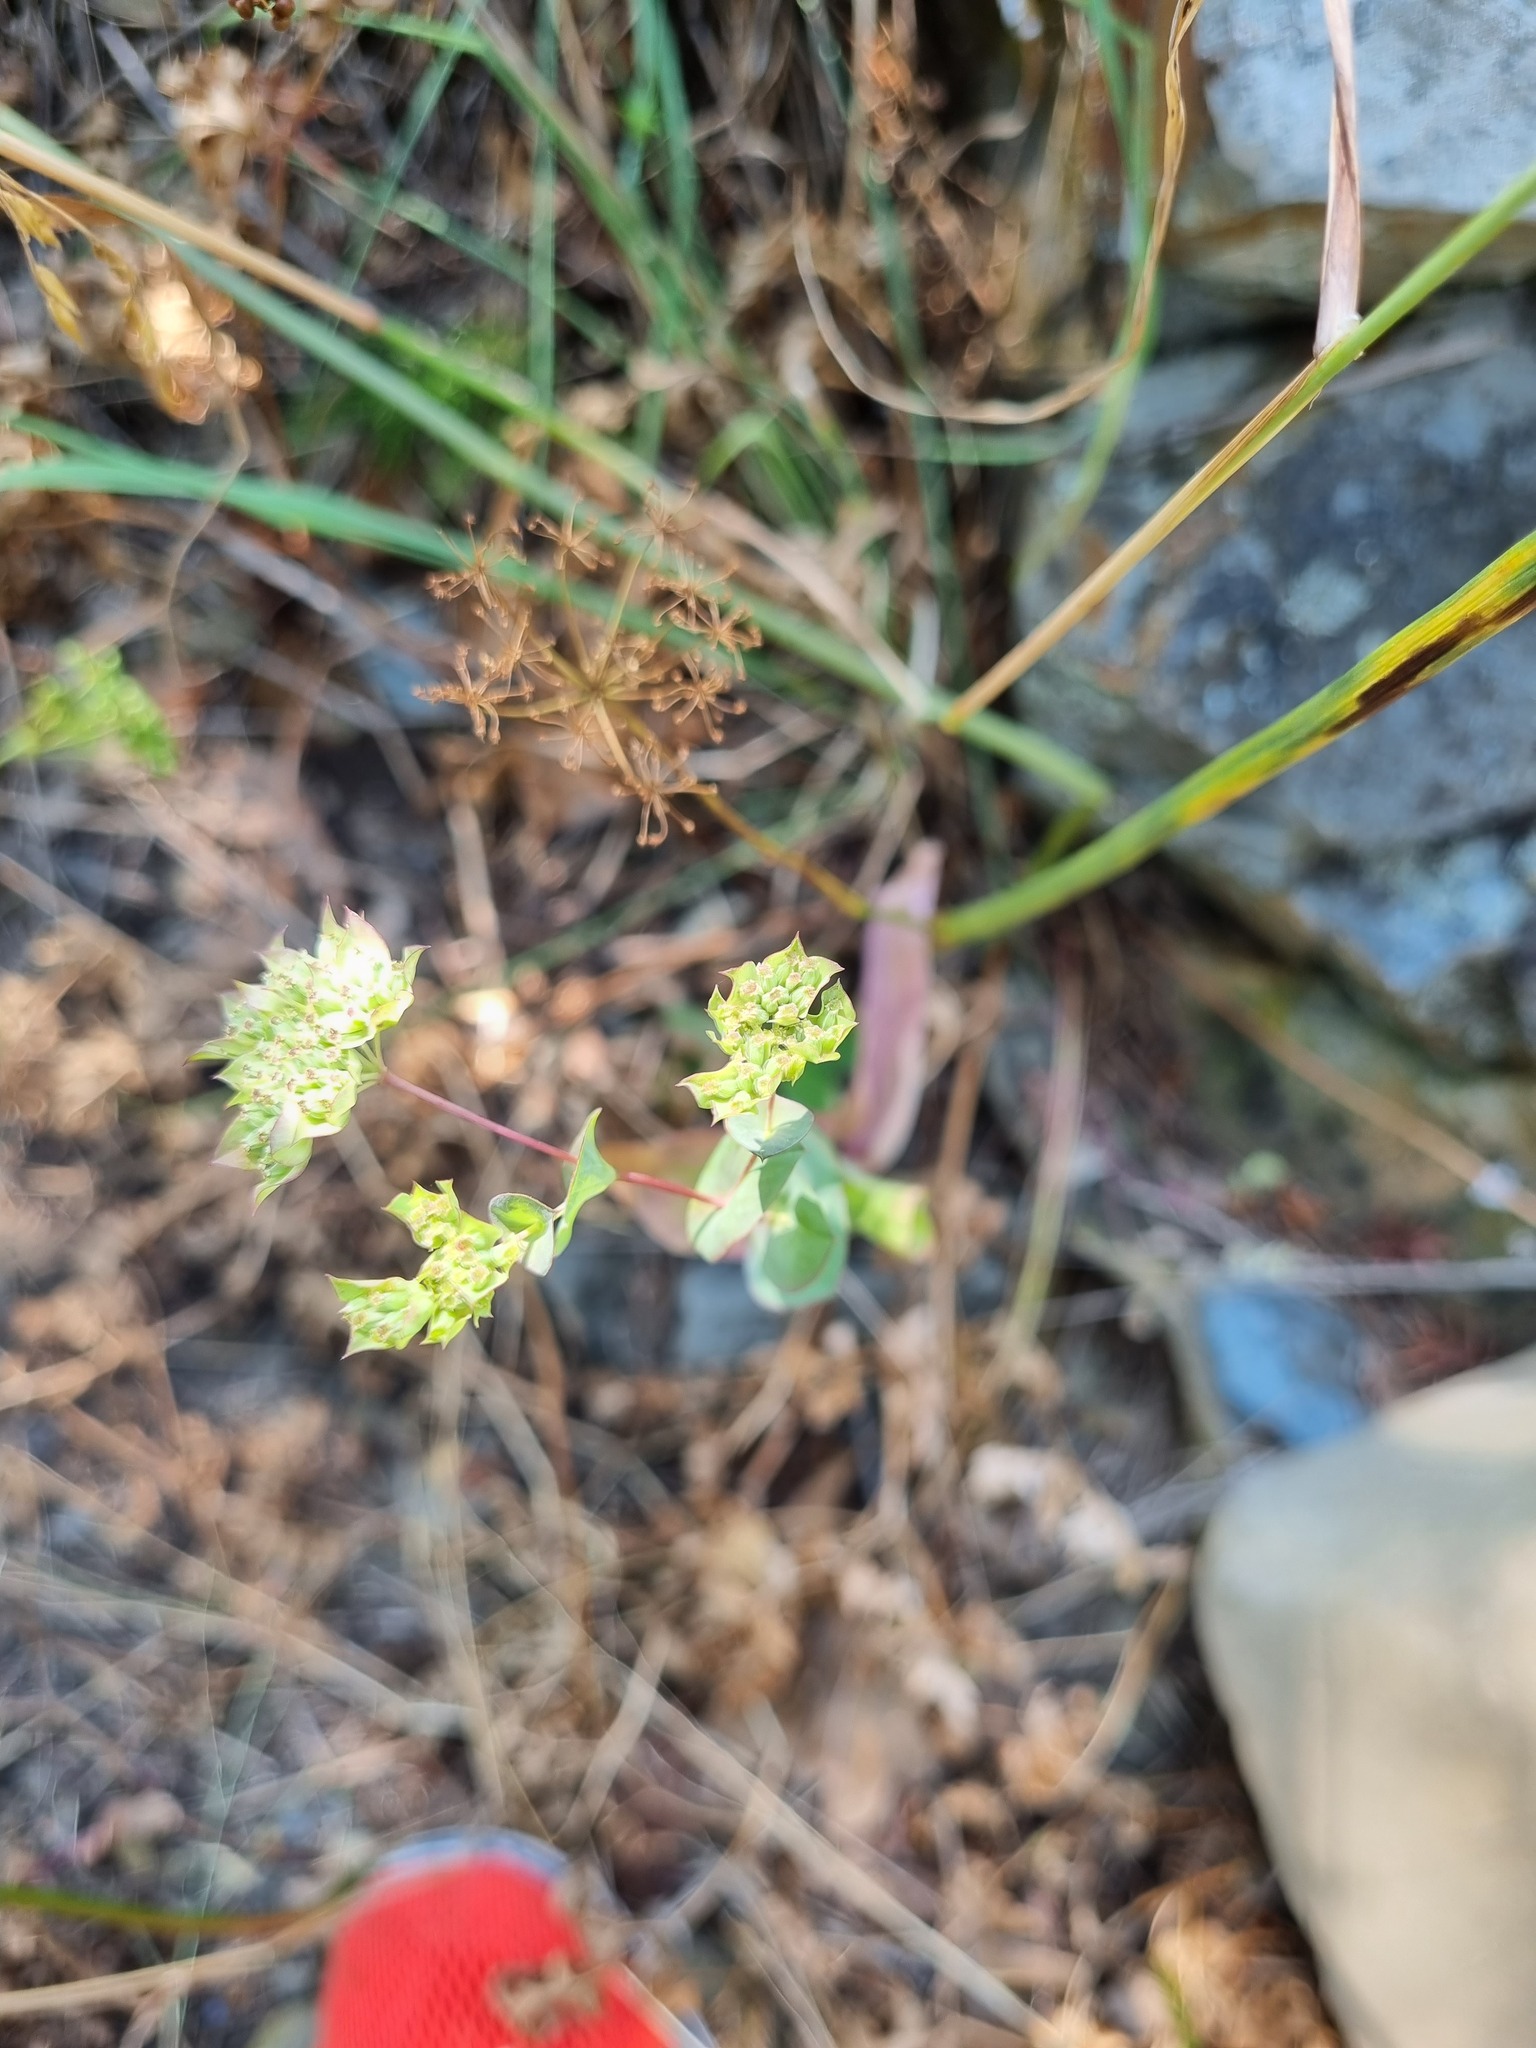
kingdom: Plantae
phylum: Tracheophyta
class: Magnoliopsida
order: Apiales
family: Apiaceae
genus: Bupleurum
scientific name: Bupleurum rotundifolium
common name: Thorow-wax
